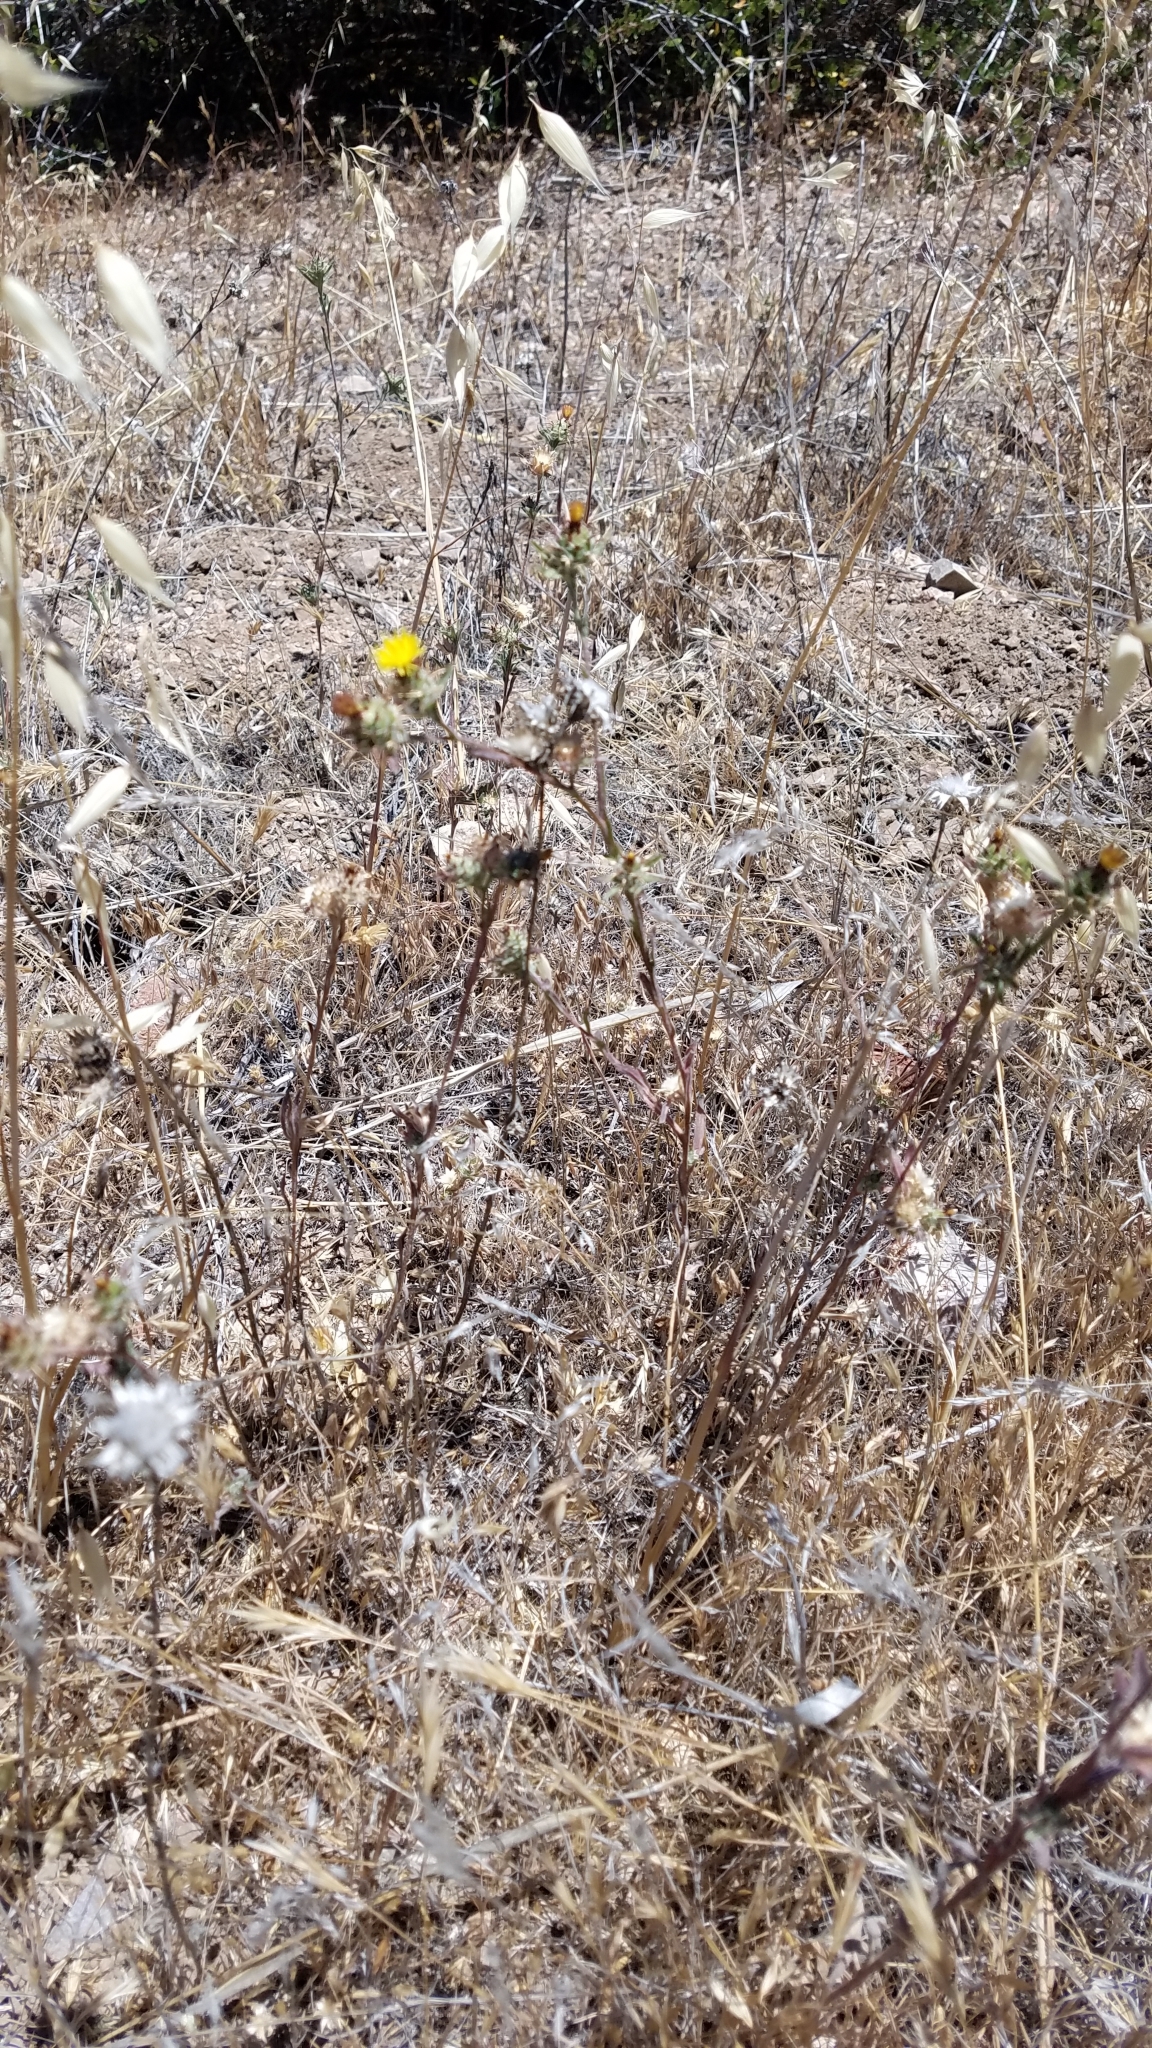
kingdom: Plantae
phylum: Tracheophyta
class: Magnoliopsida
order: Asterales
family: Asteraceae
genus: Centaurea
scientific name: Centaurea melitensis
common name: Maltese star-thistle
